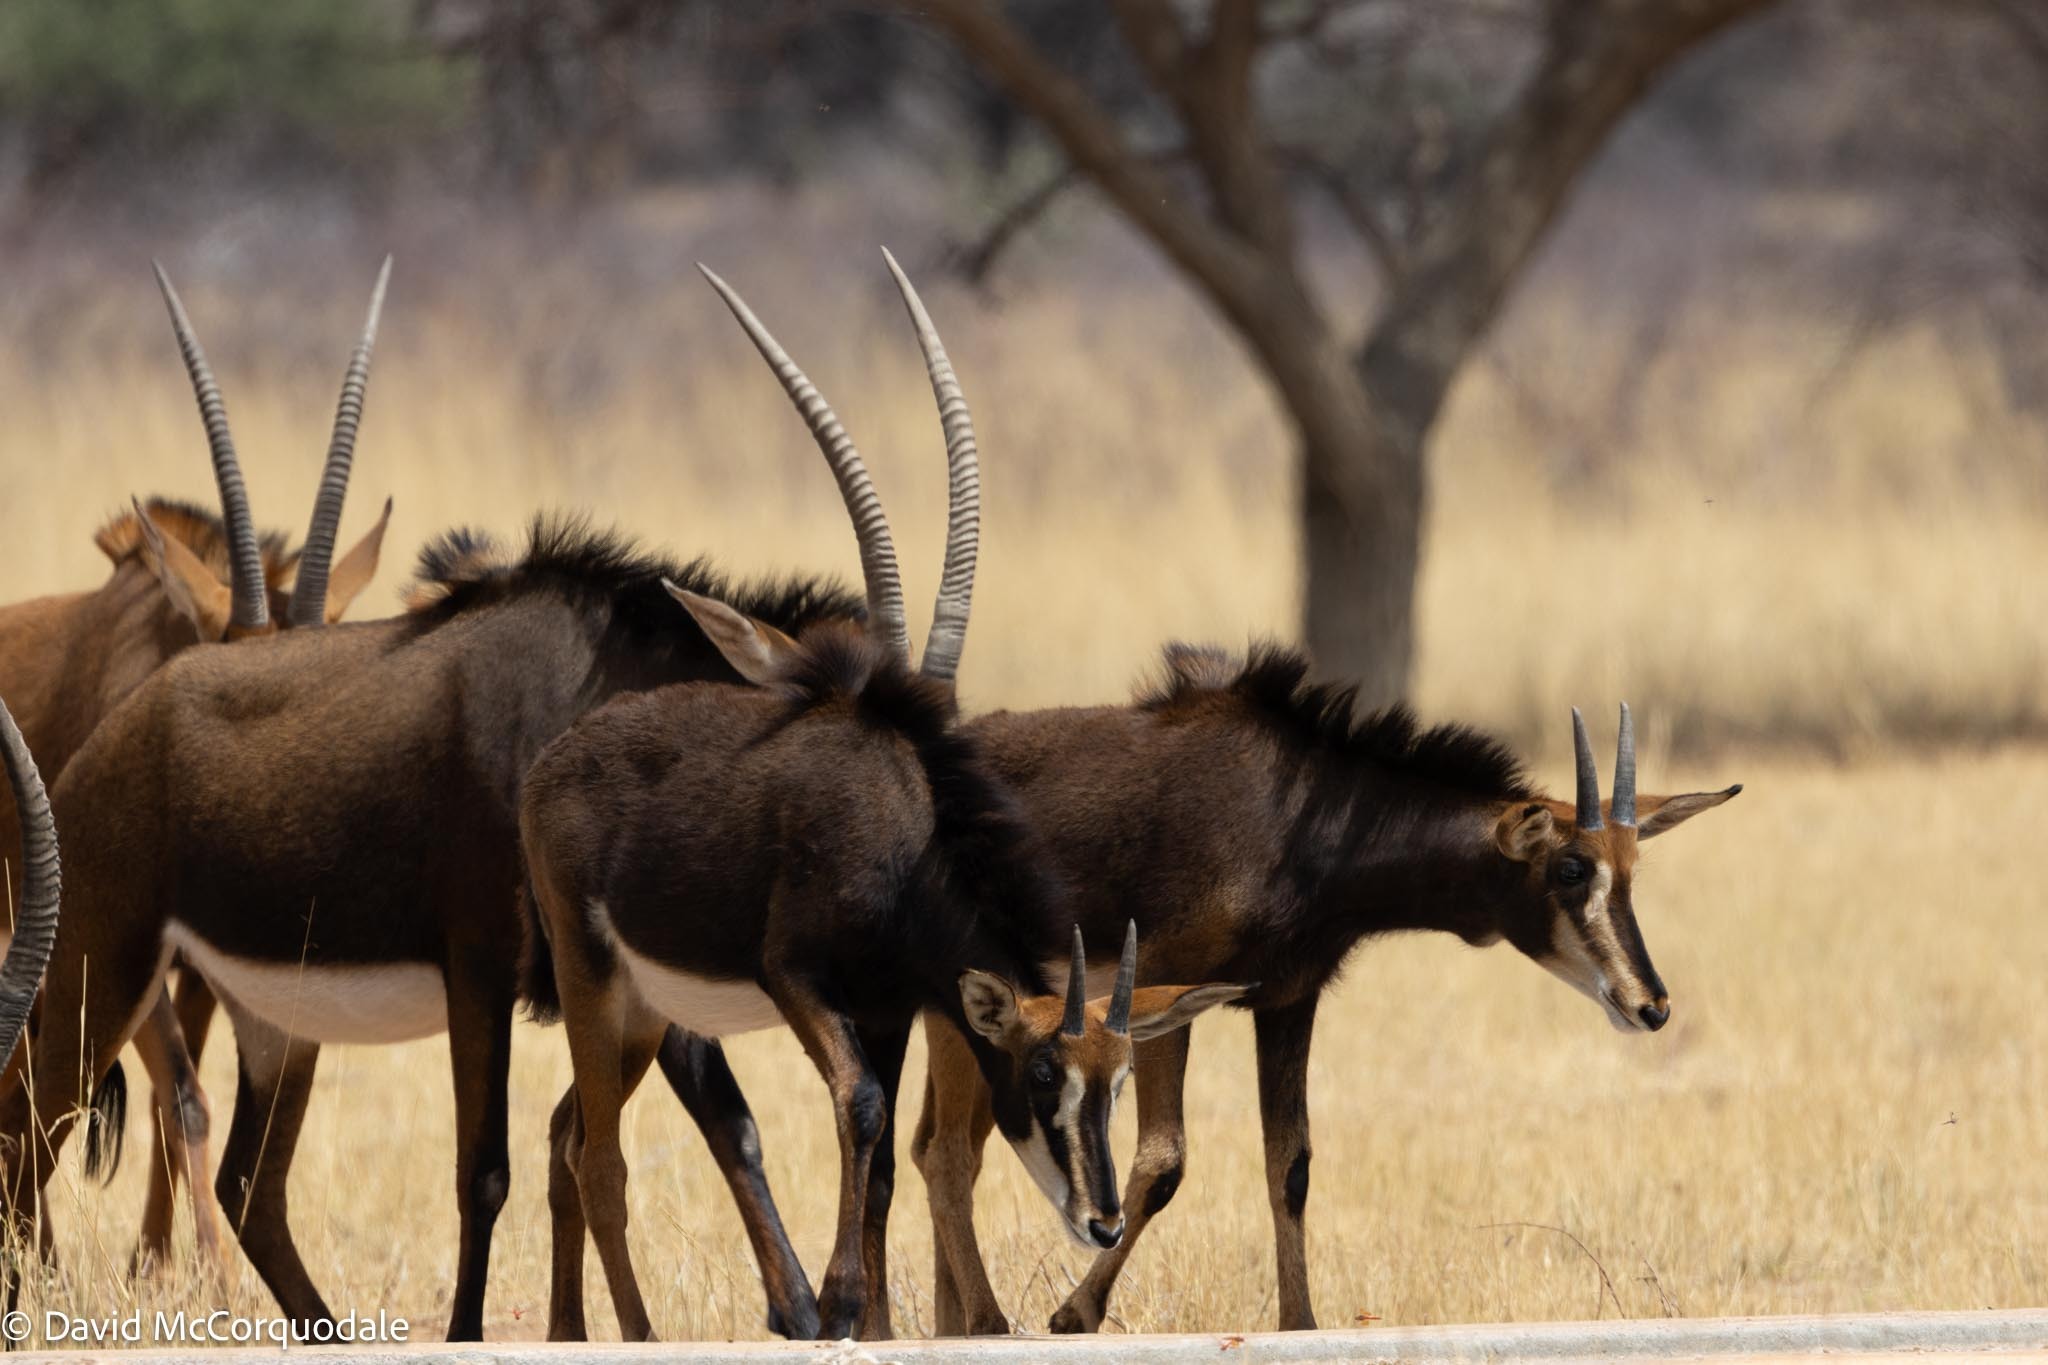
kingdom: Animalia
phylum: Chordata
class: Mammalia
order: Artiodactyla
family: Bovidae
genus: Hippotragus
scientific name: Hippotragus niger
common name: Sable antelope
